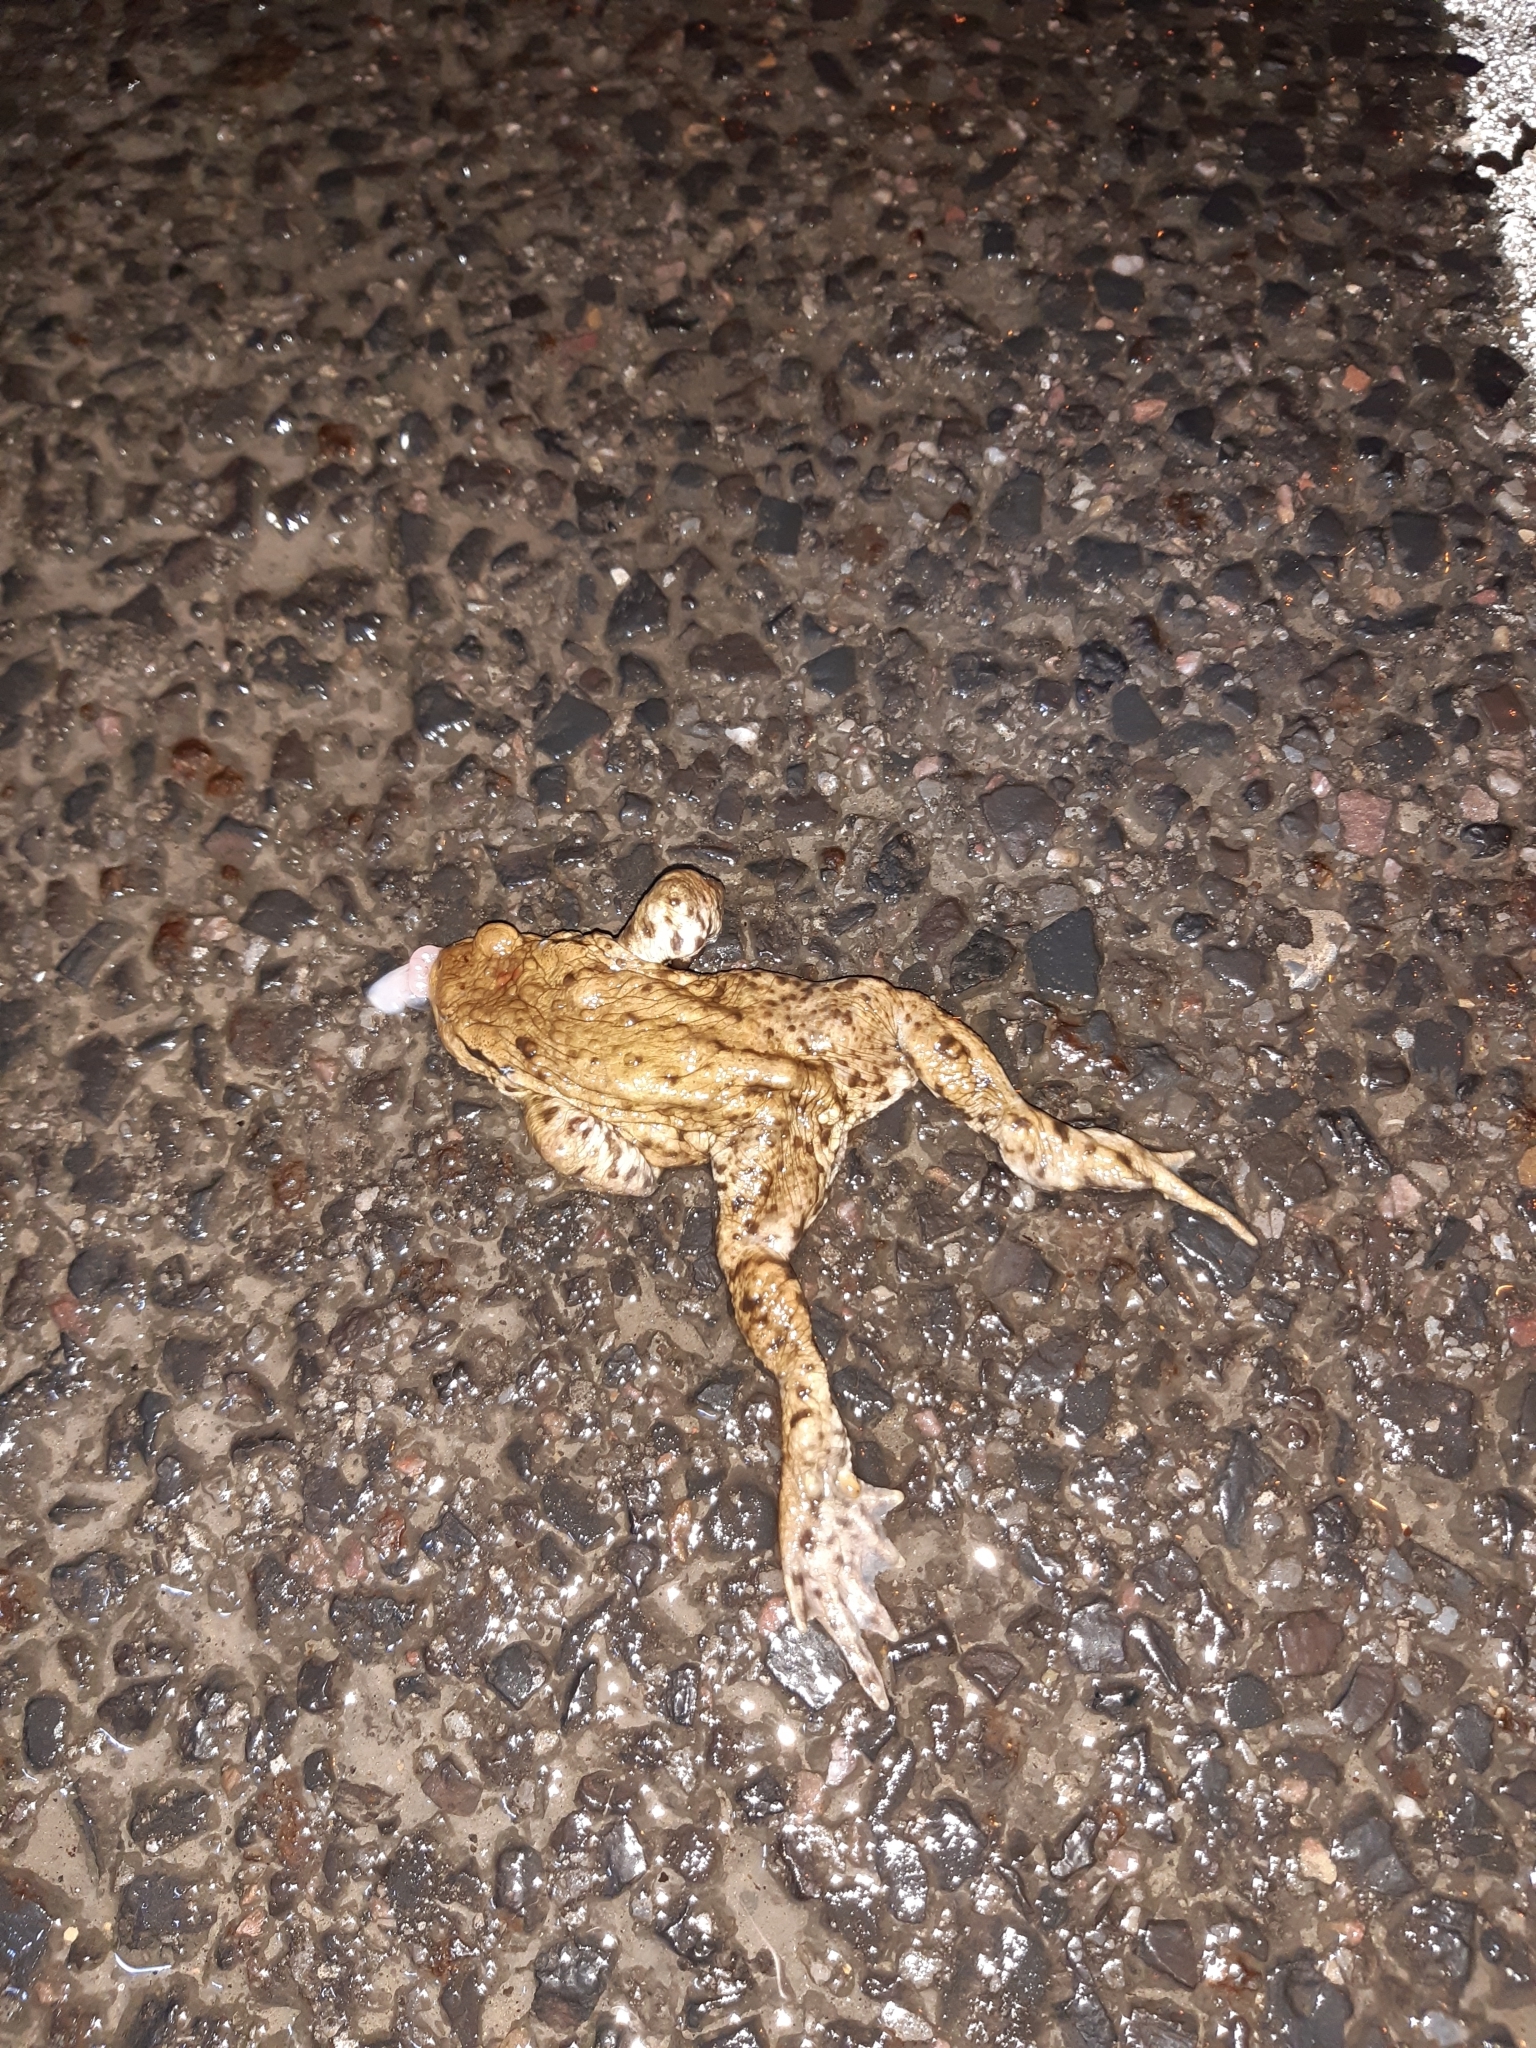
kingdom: Animalia
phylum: Chordata
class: Amphibia
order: Anura
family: Bufonidae
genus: Bufo
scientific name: Bufo bufo
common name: Common toad
